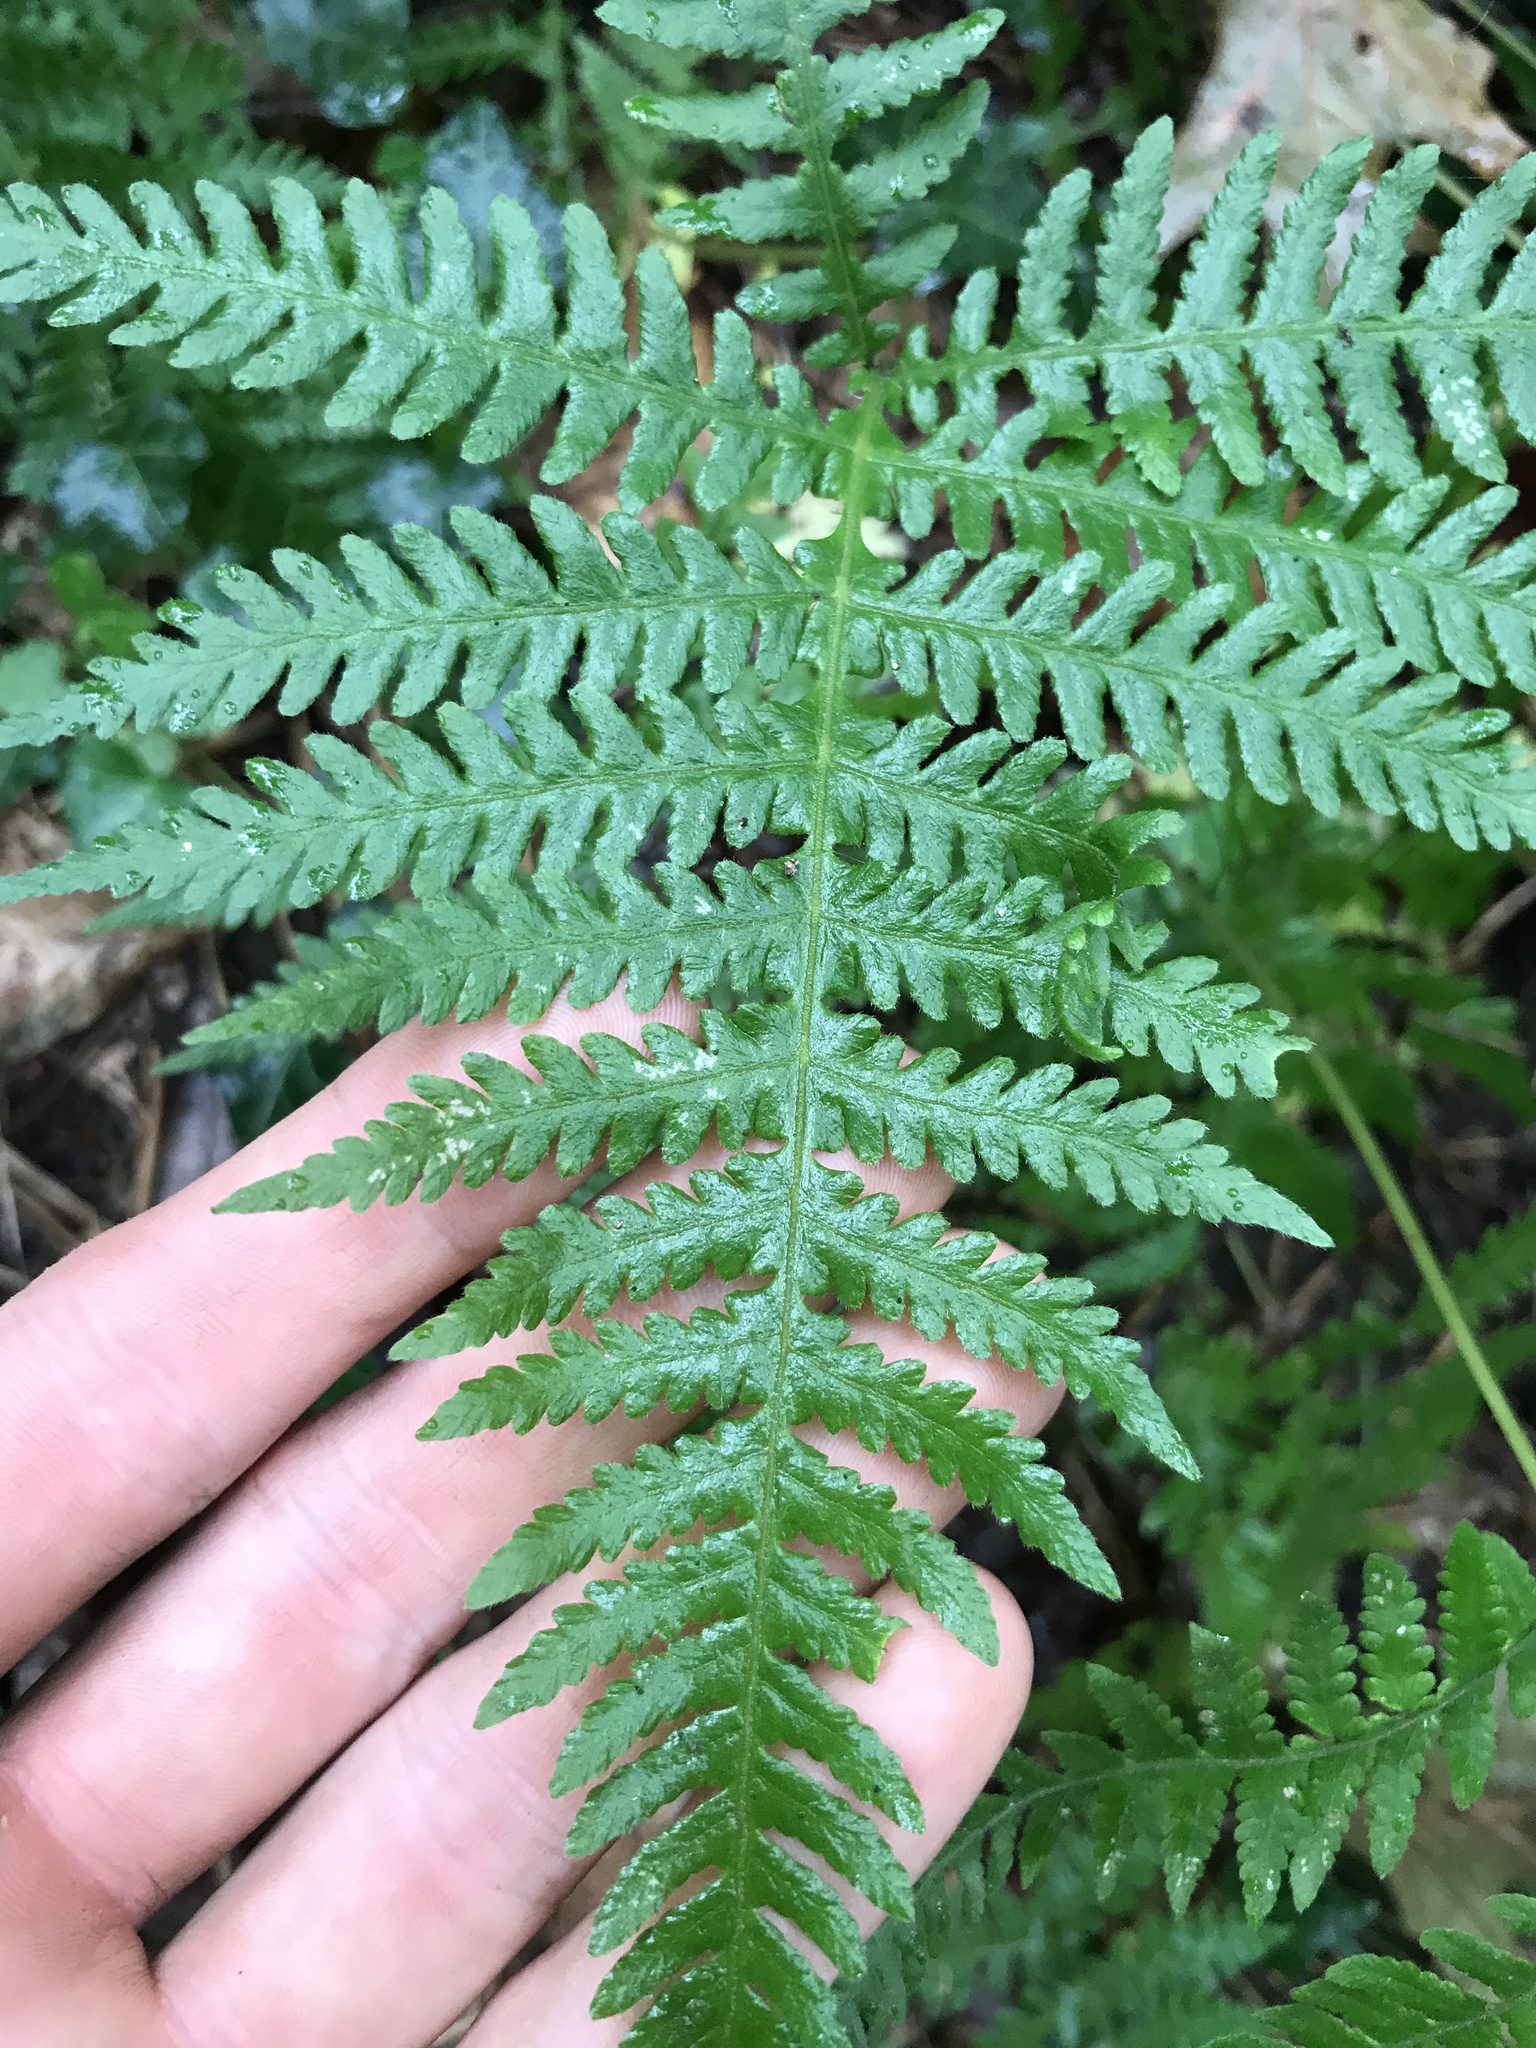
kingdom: Plantae
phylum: Tracheophyta
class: Polypodiopsida
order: Polypodiales
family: Thelypteridaceae
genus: Phegopteris
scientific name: Phegopteris hexagonoptera
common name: Broad beech fern
